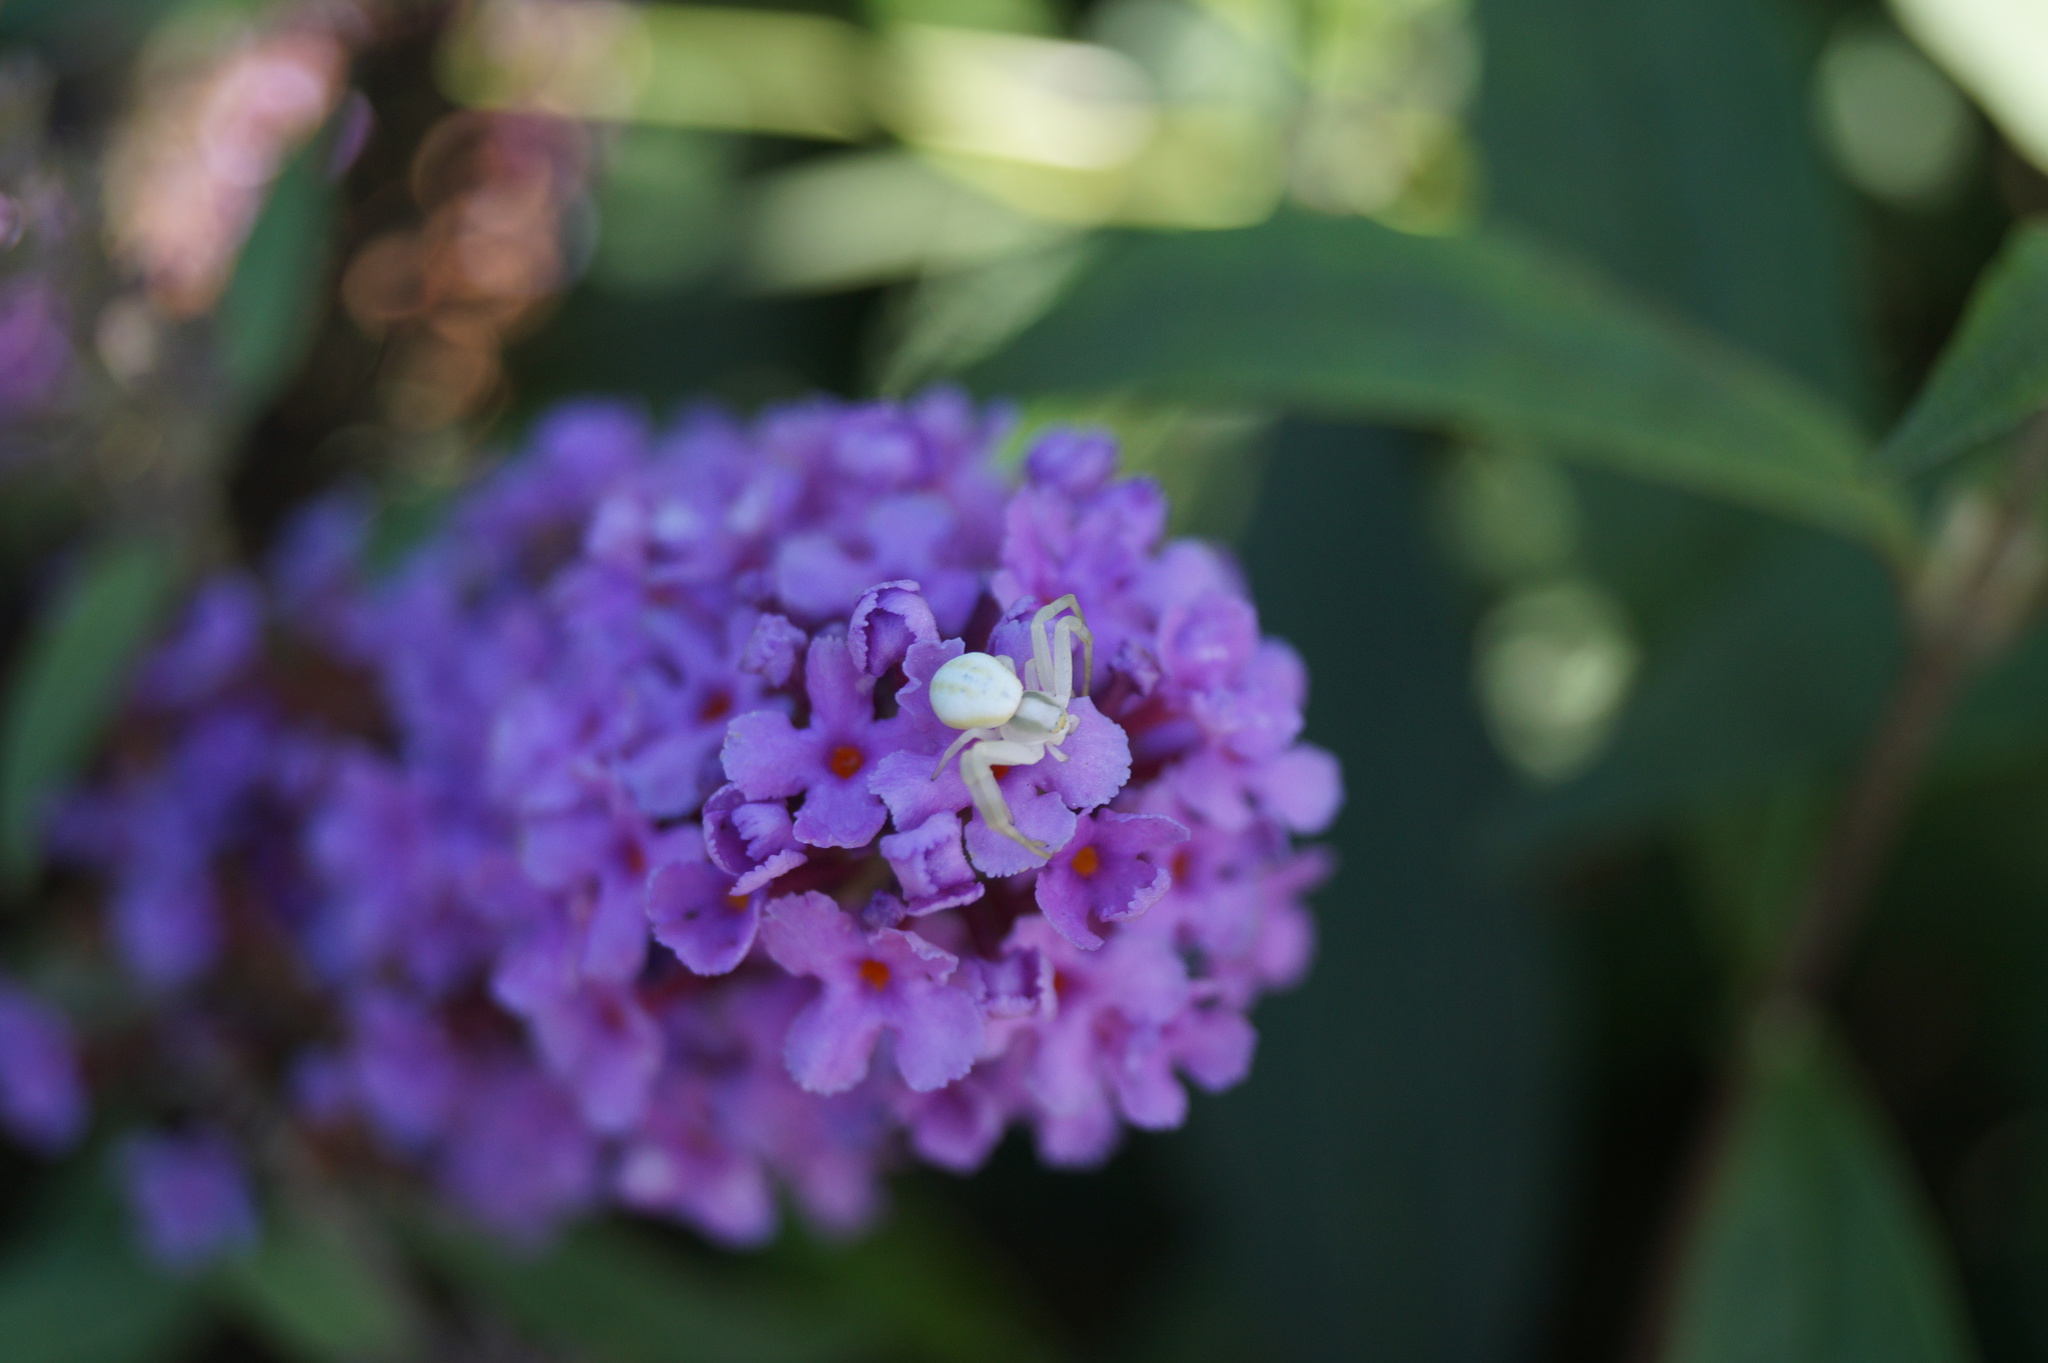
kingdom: Animalia
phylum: Arthropoda
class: Arachnida
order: Araneae
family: Thomisidae
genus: Misumena
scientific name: Misumena vatia
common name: Goldenrod crab spider
